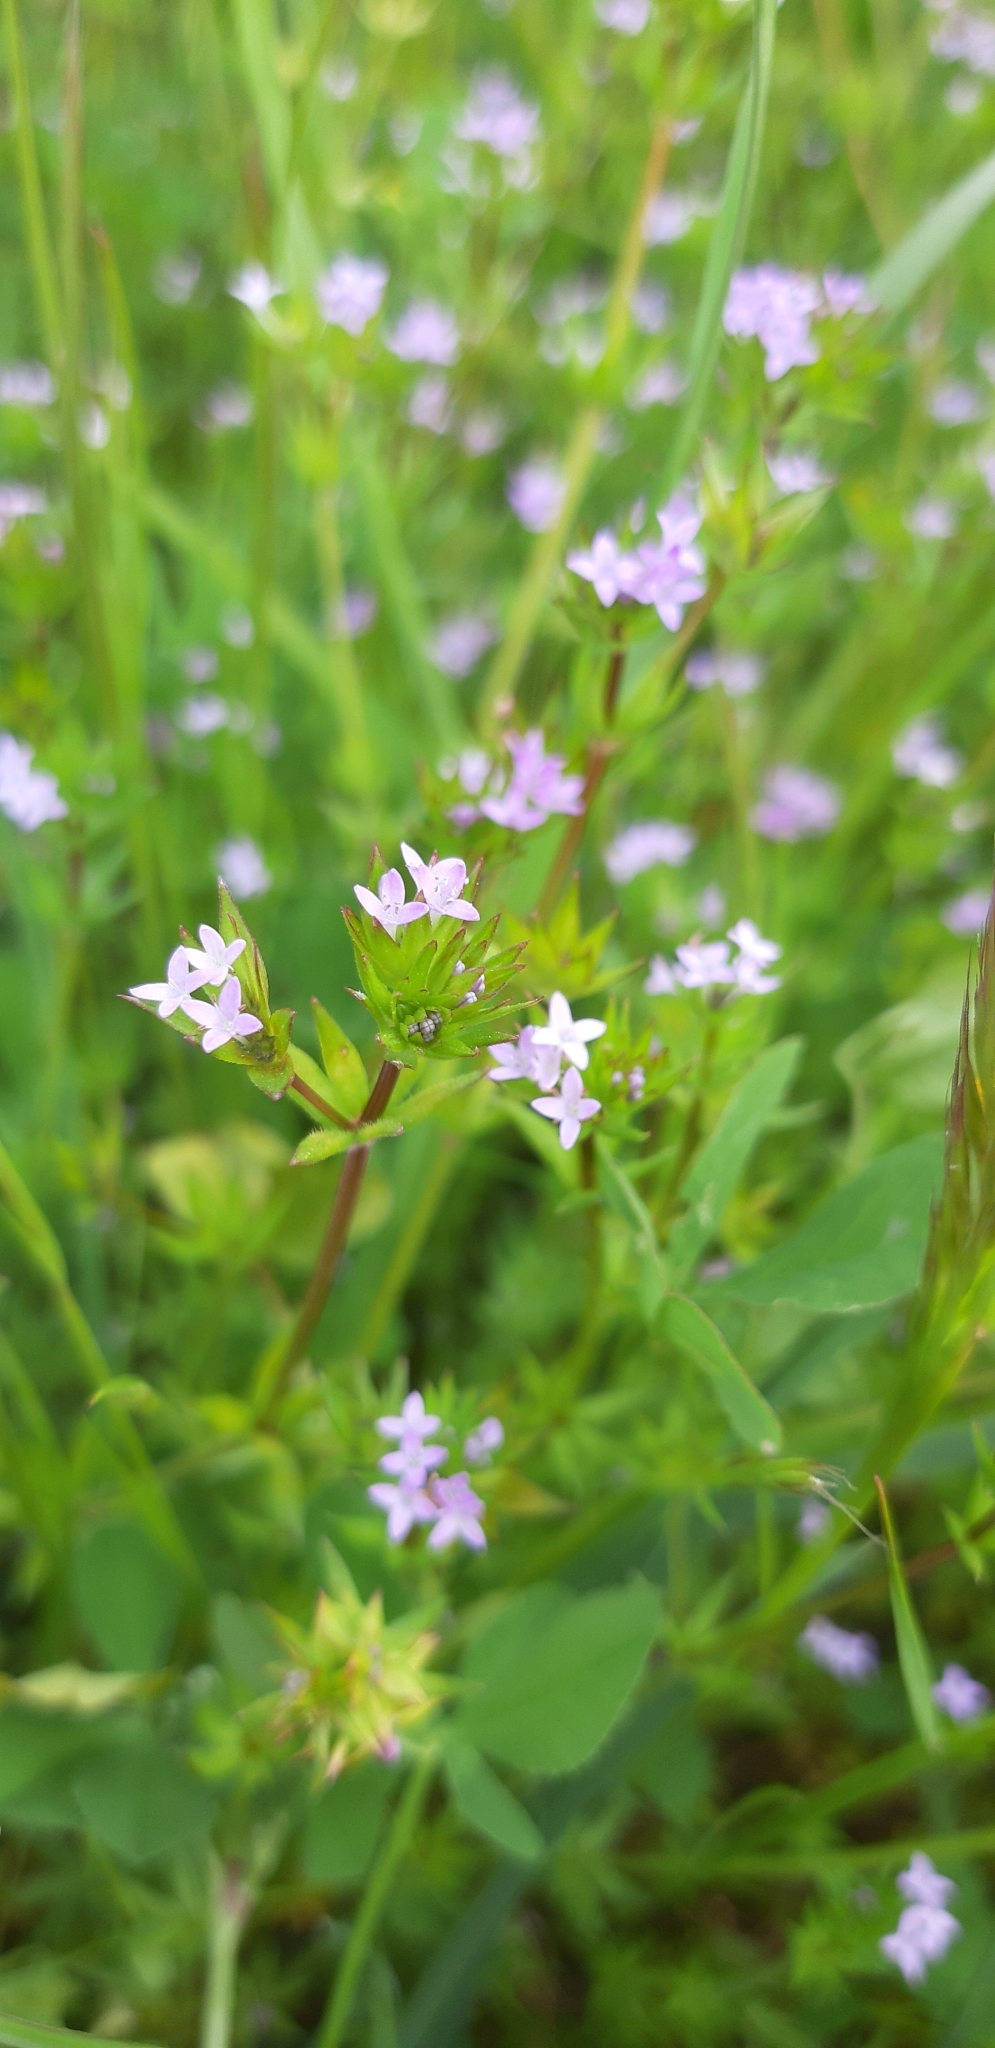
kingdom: Plantae
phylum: Tracheophyta
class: Magnoliopsida
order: Gentianales
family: Rubiaceae
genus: Sherardia
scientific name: Sherardia arvensis
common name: Field madder
